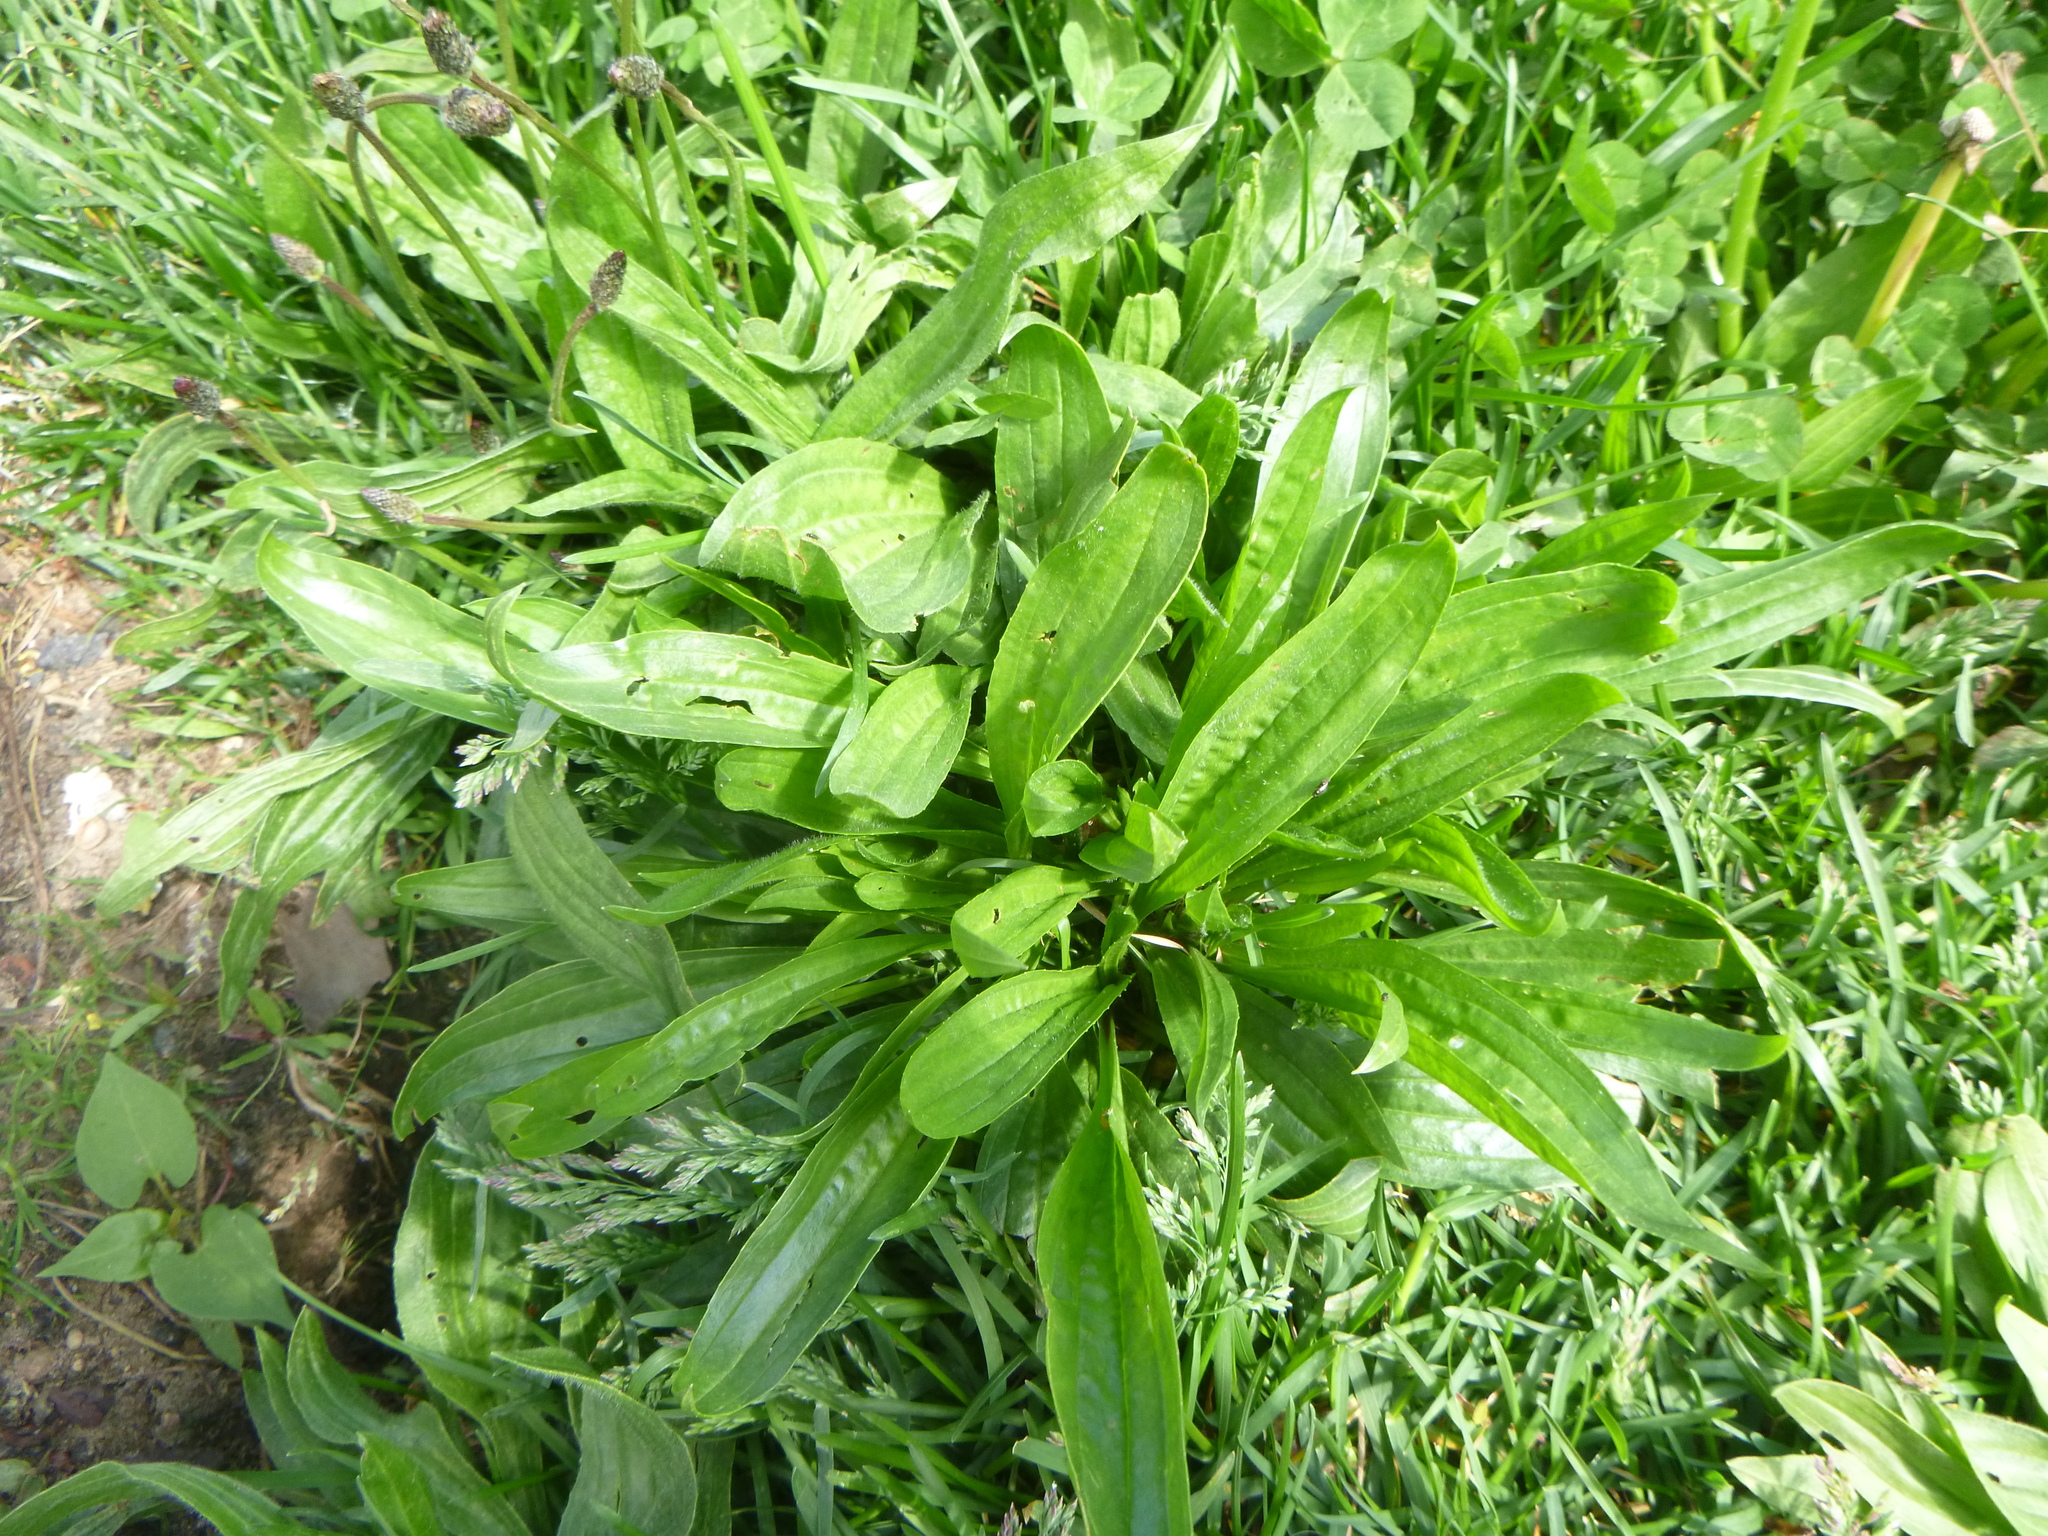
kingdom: Plantae
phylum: Tracheophyta
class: Magnoliopsida
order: Lamiales
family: Plantaginaceae
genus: Plantago
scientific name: Plantago lanceolata
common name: Ribwort plantain
